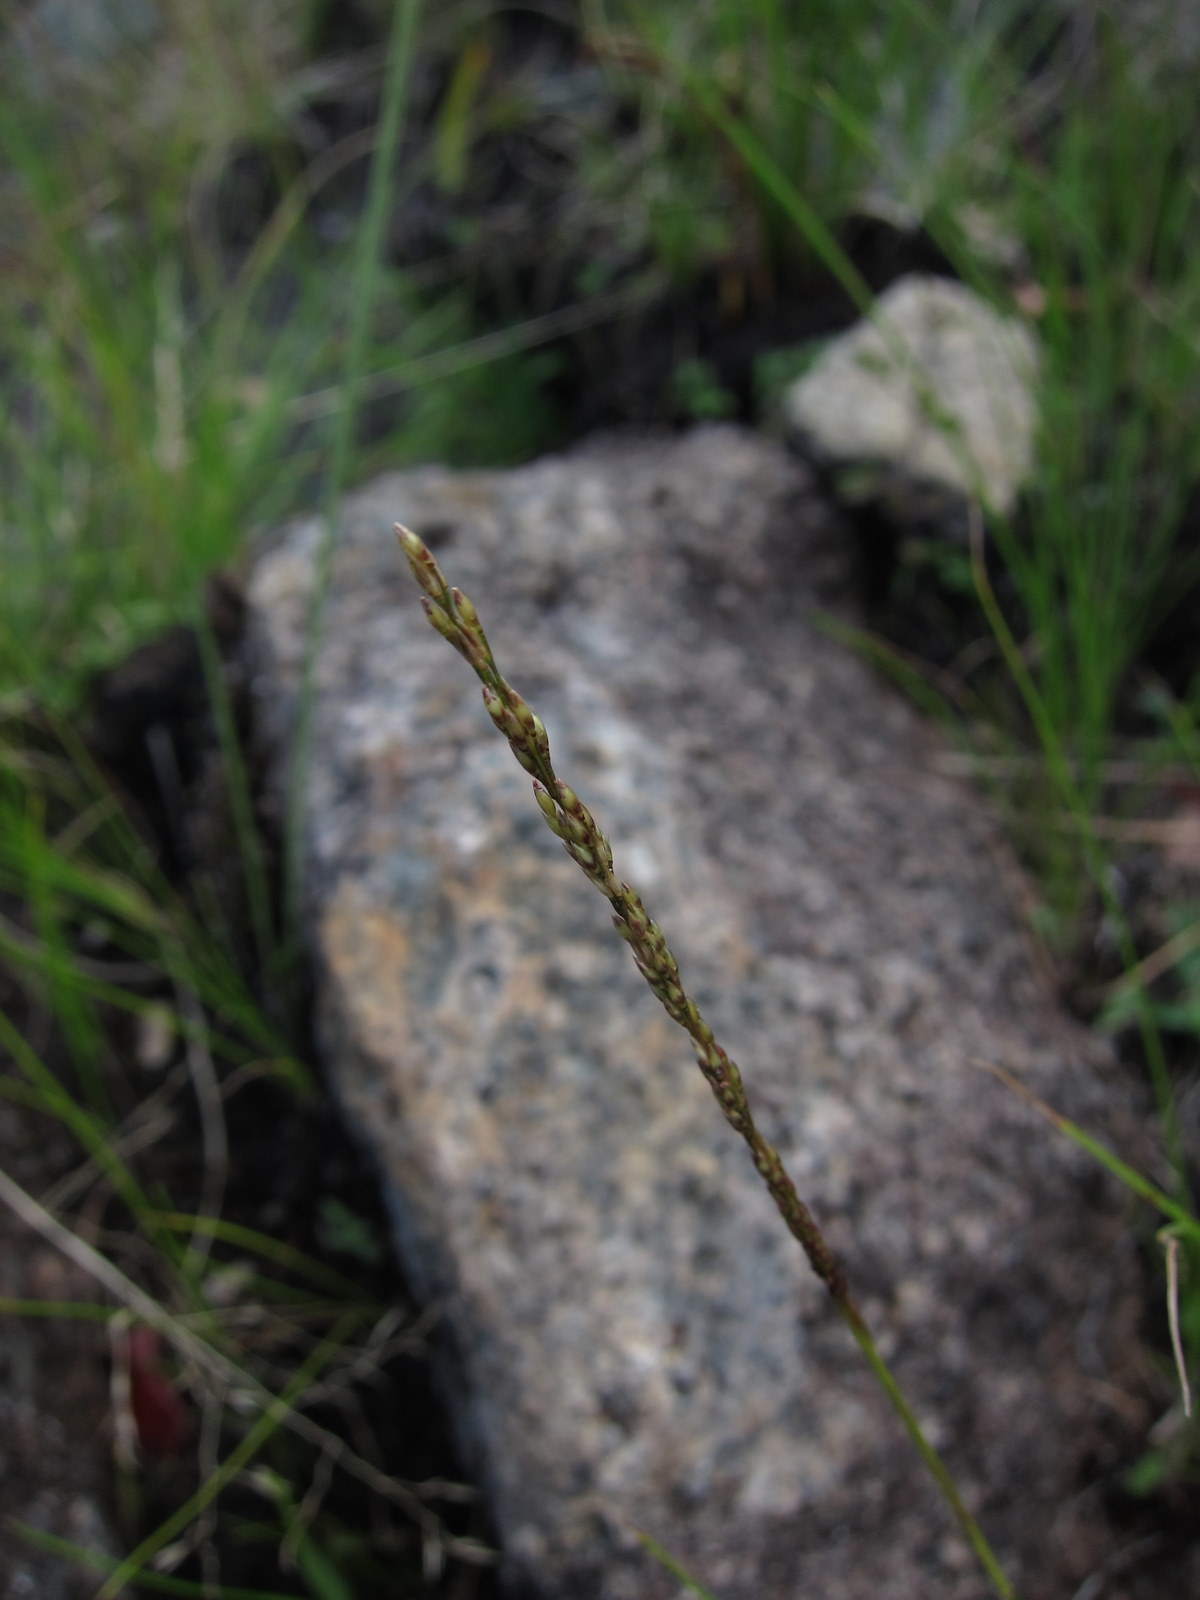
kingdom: Plantae
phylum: Tracheophyta
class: Liliopsida
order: Poales
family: Poaceae
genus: Sporobolus
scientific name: Sporobolus pilifer
